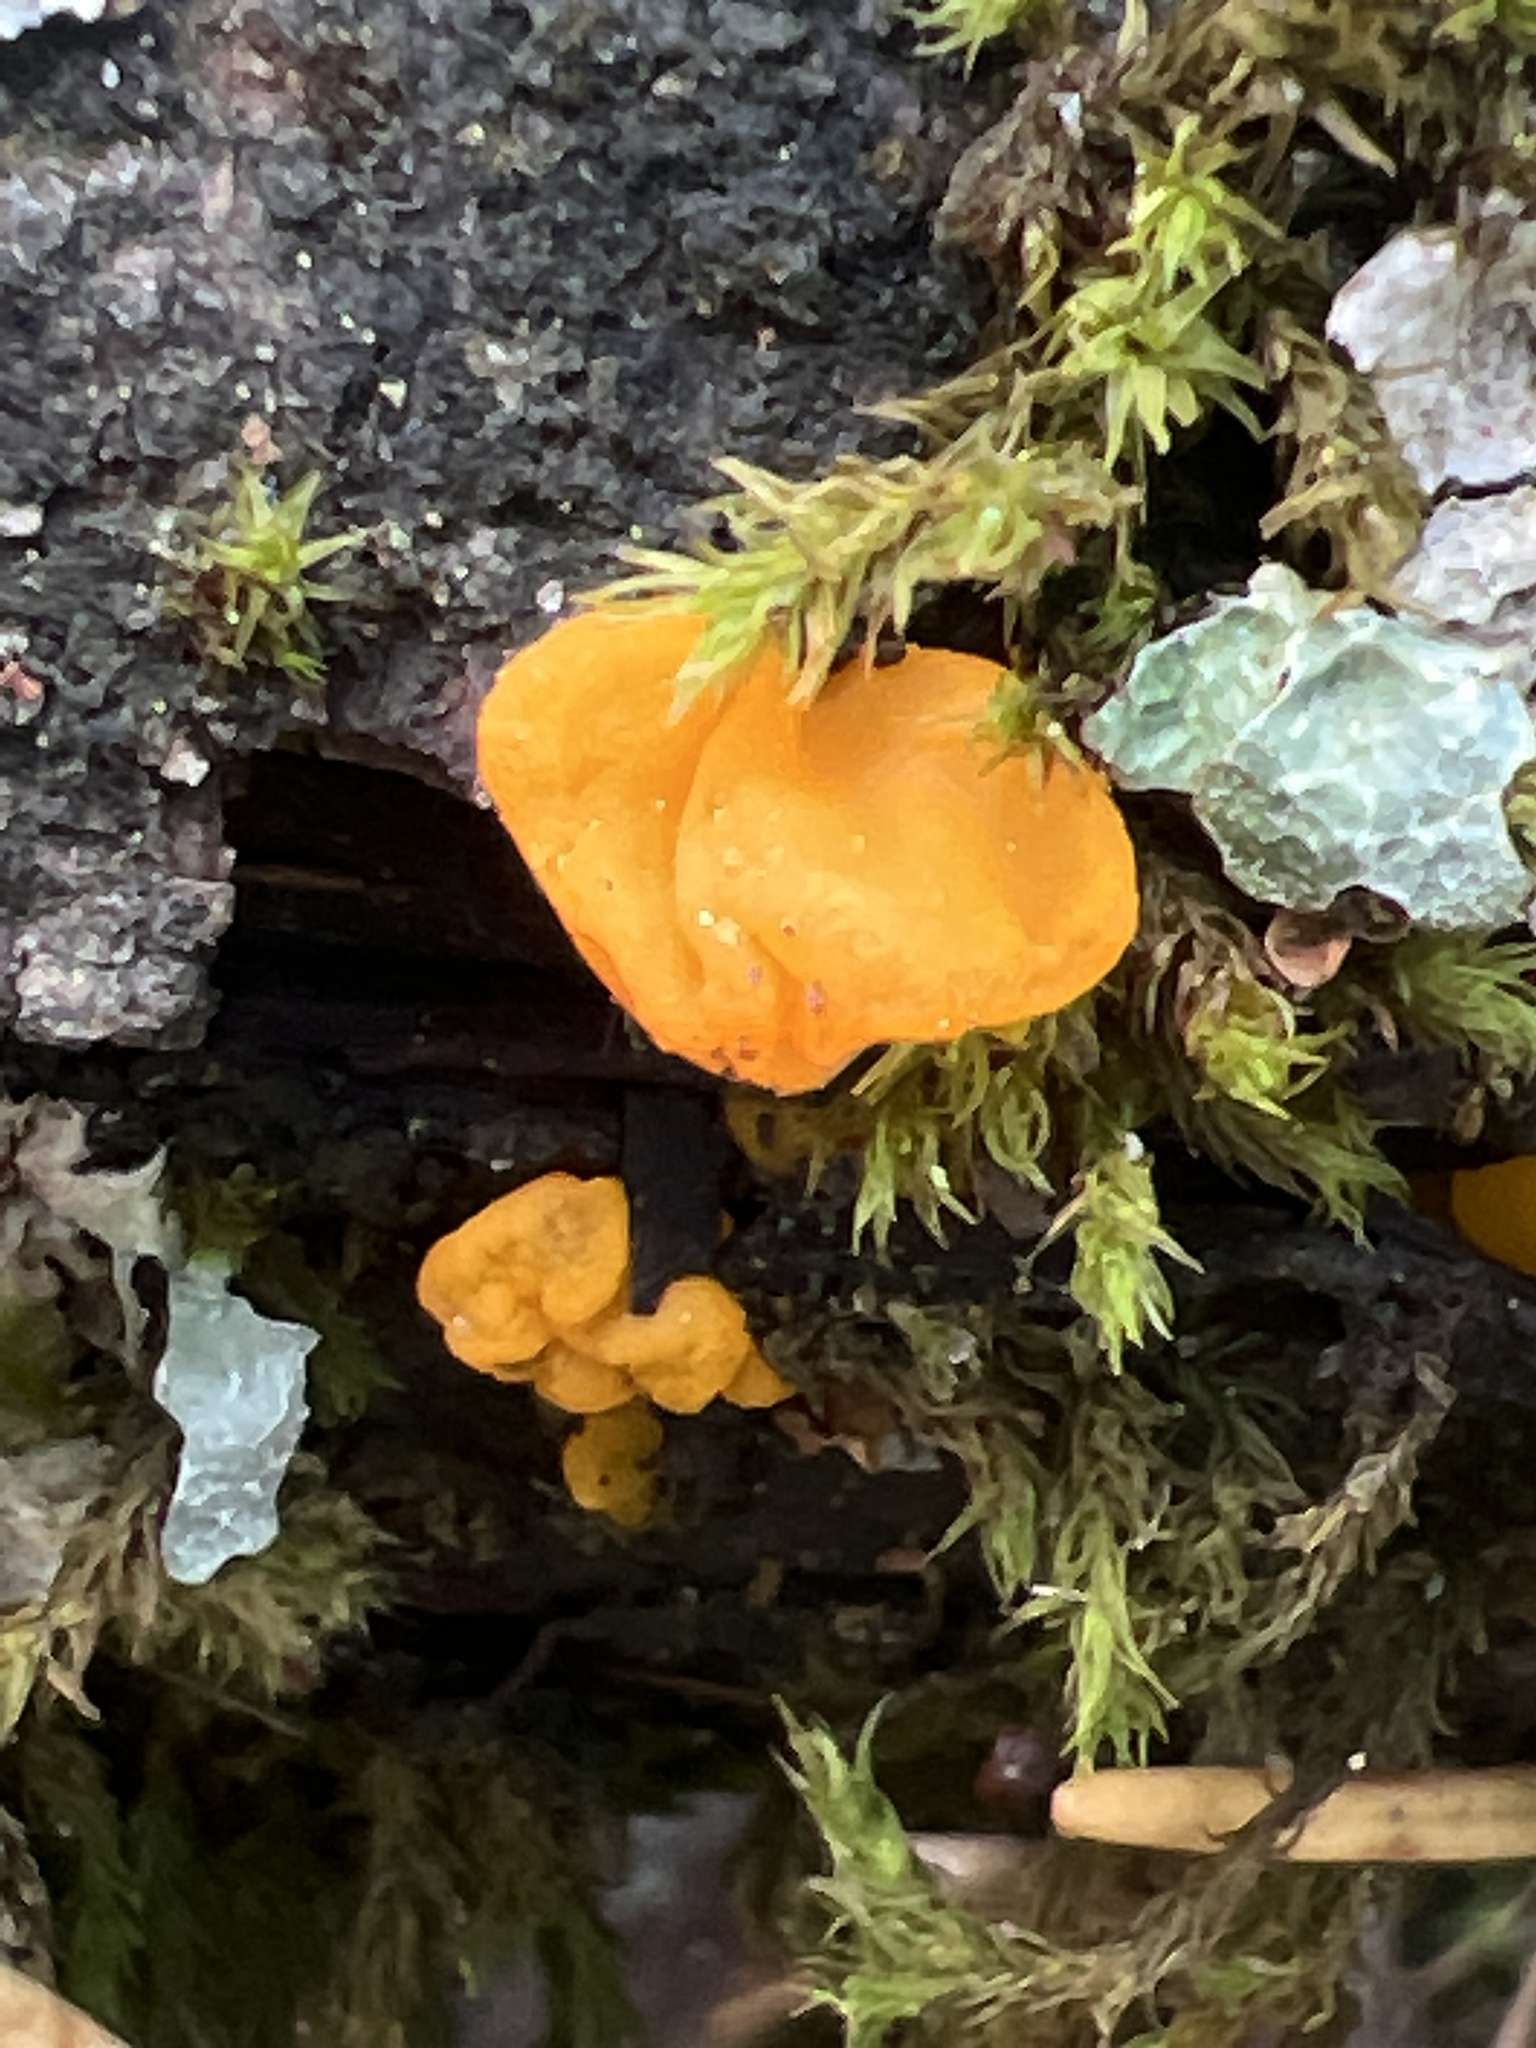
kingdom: Fungi
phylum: Basidiomycota
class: Dacrymycetes
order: Dacrymycetales
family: Dacrymycetaceae
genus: Dacrymyces
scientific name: Dacrymyces chrysospermus
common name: Orange jelly spot
